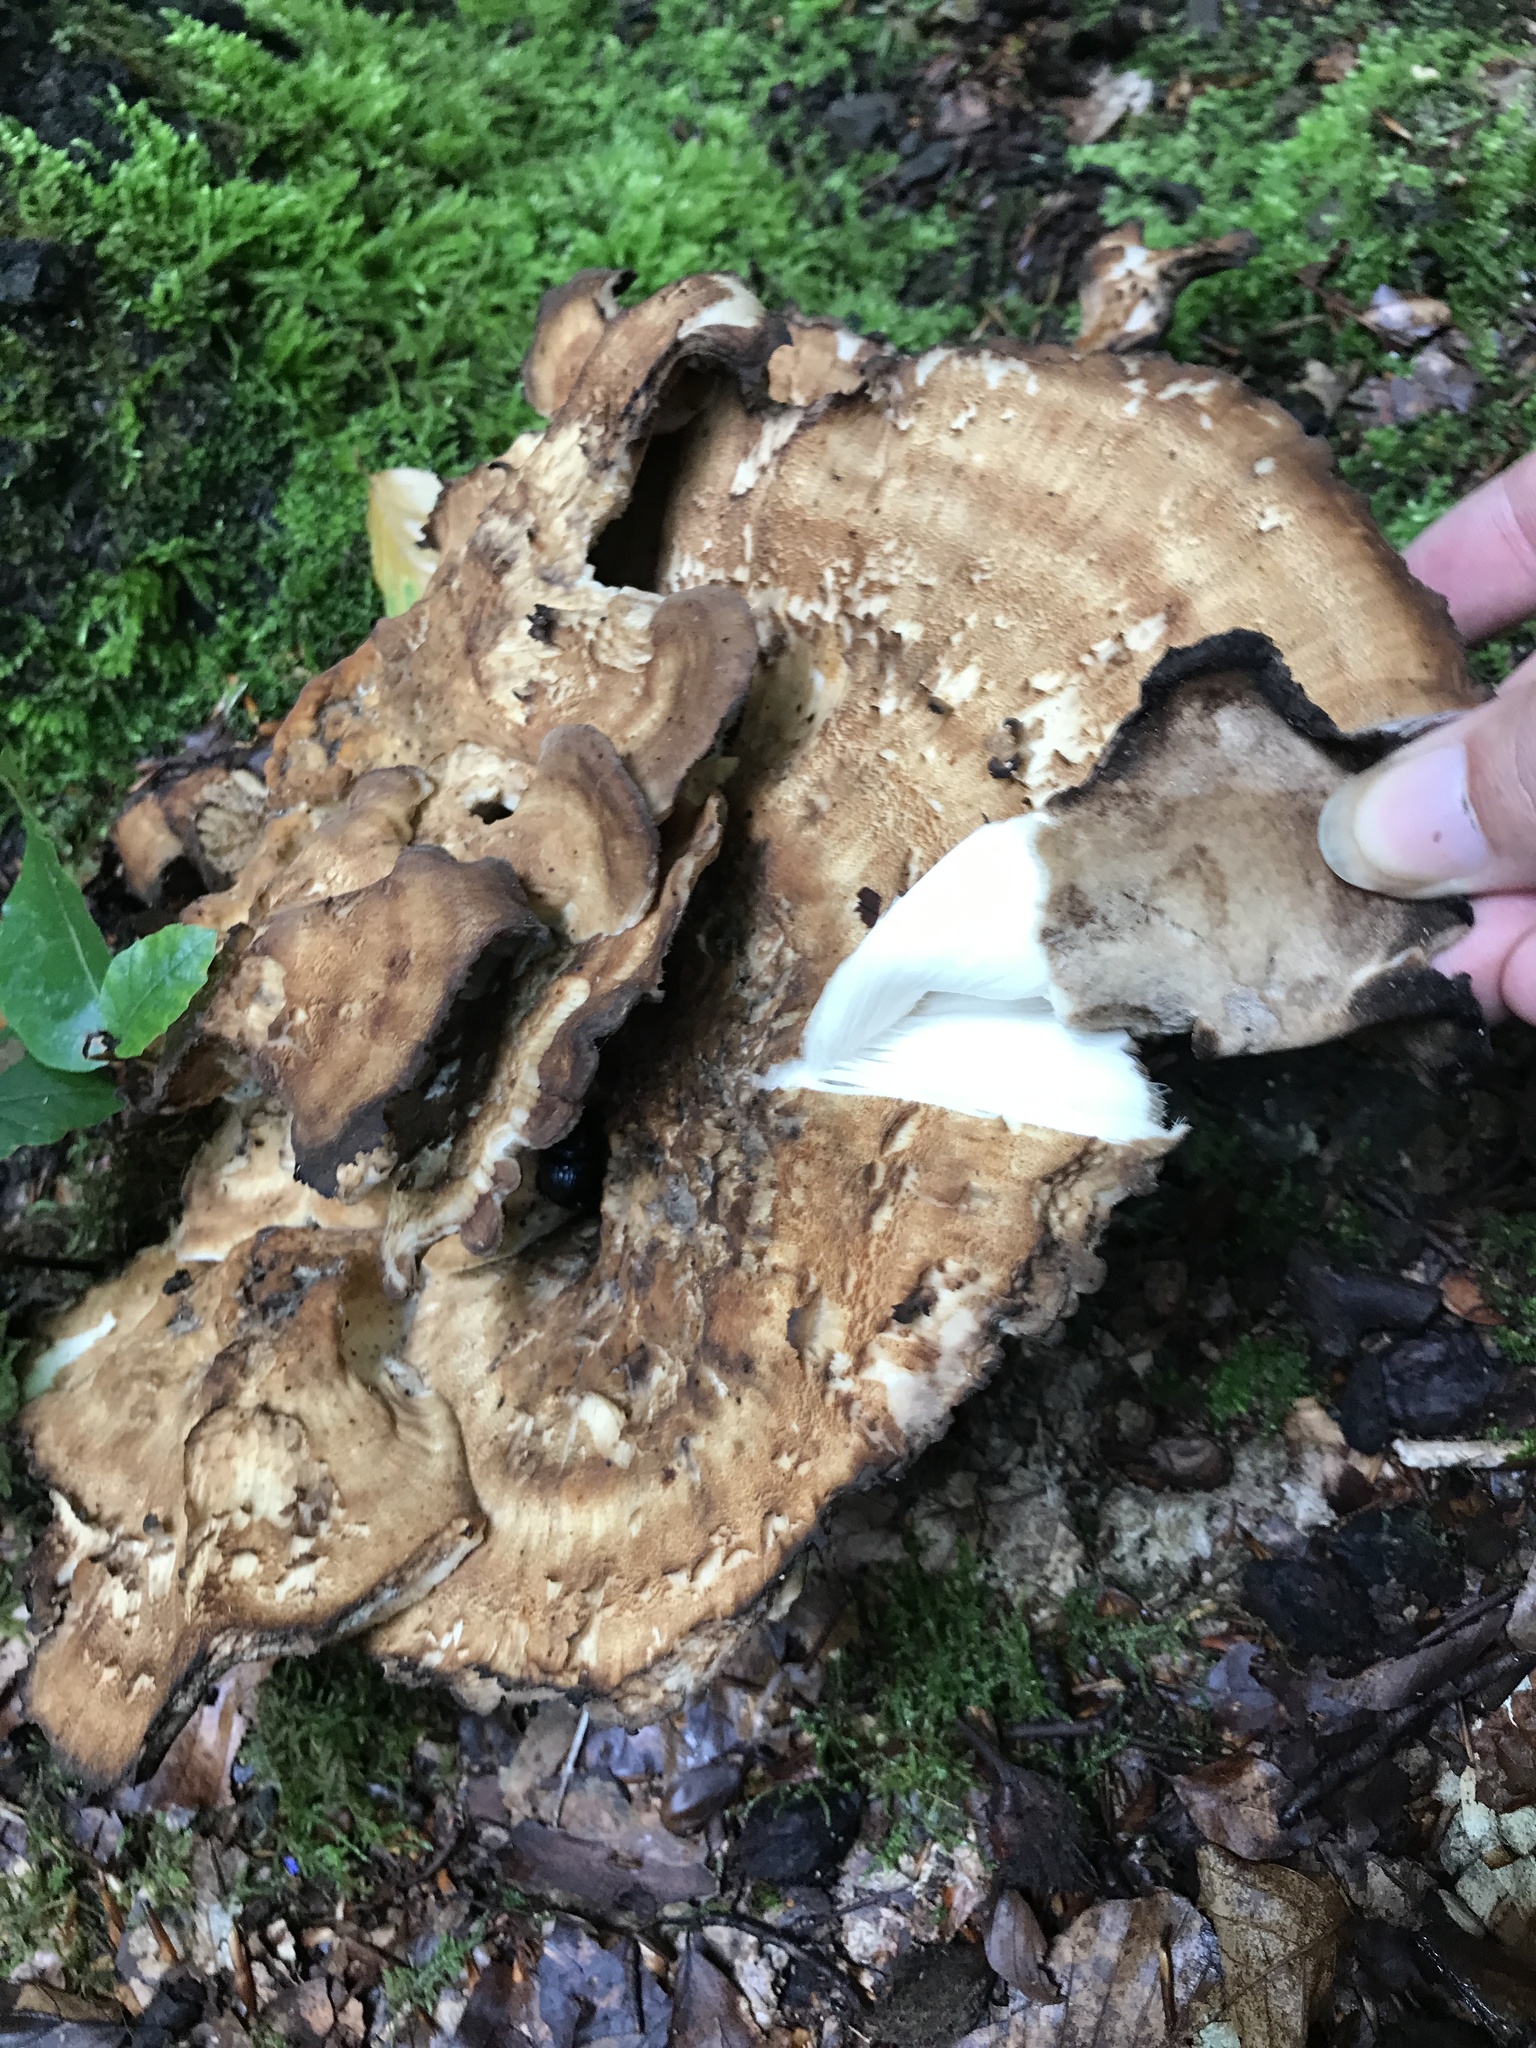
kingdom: Fungi
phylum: Basidiomycota
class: Agaricomycetes
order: Polyporales
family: Meripilaceae
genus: Meripilus
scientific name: Meripilus giganteus
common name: Giant polypore
